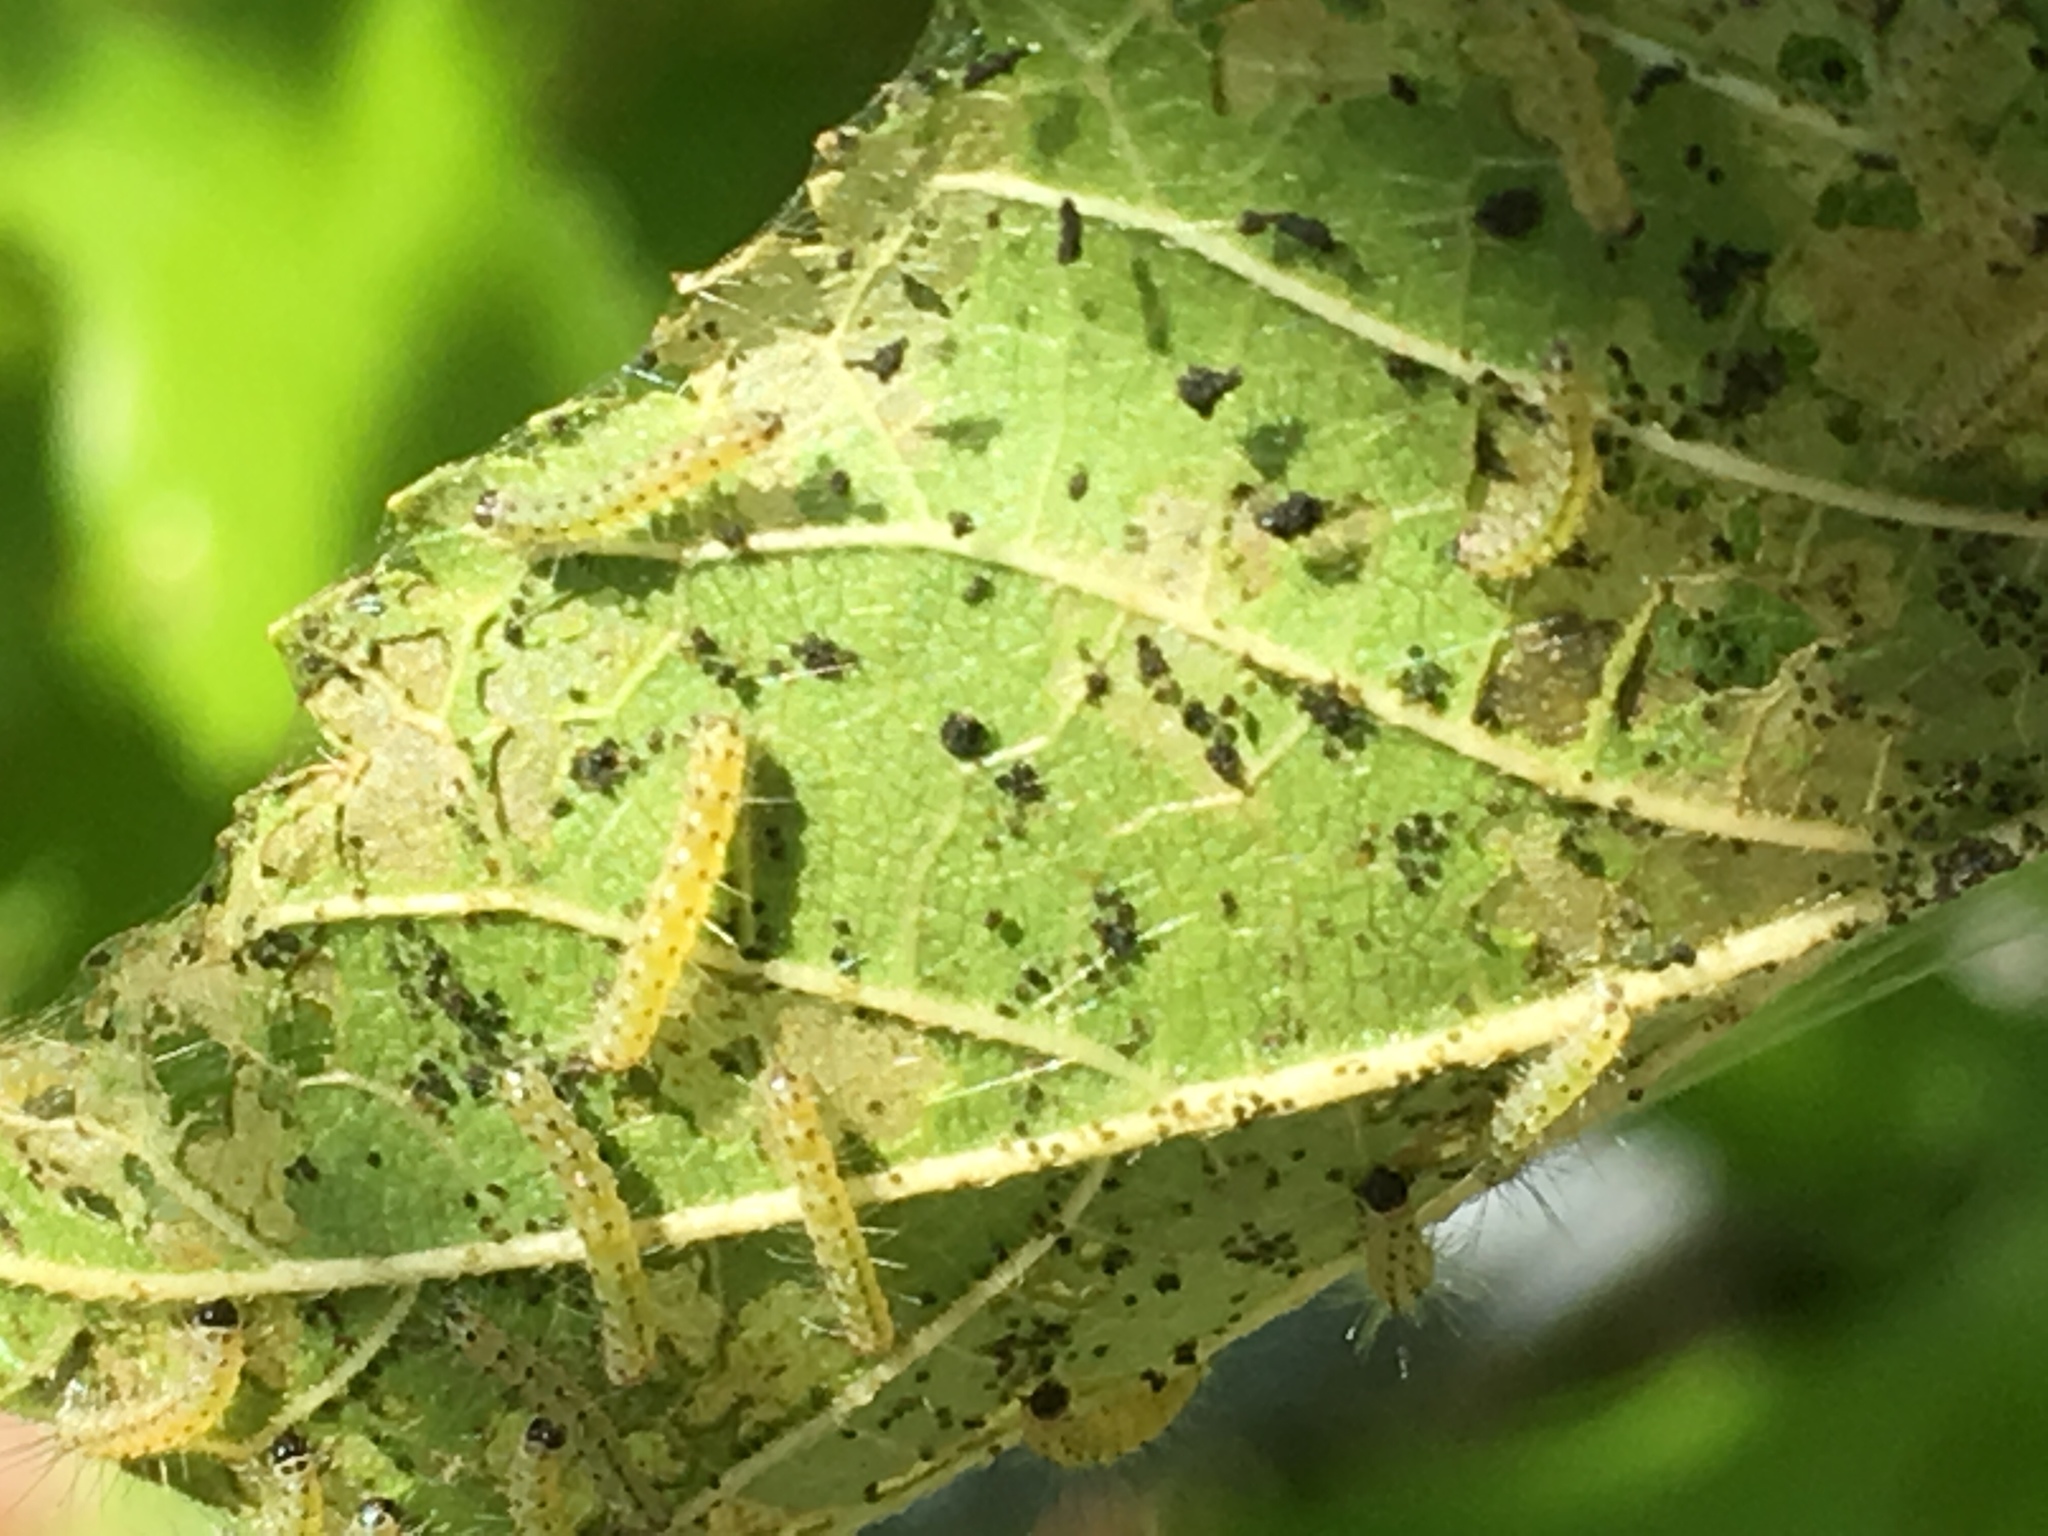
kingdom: Animalia
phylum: Arthropoda
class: Insecta
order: Lepidoptera
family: Erebidae
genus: Hyphantria
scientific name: Hyphantria cunea
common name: American white moth
